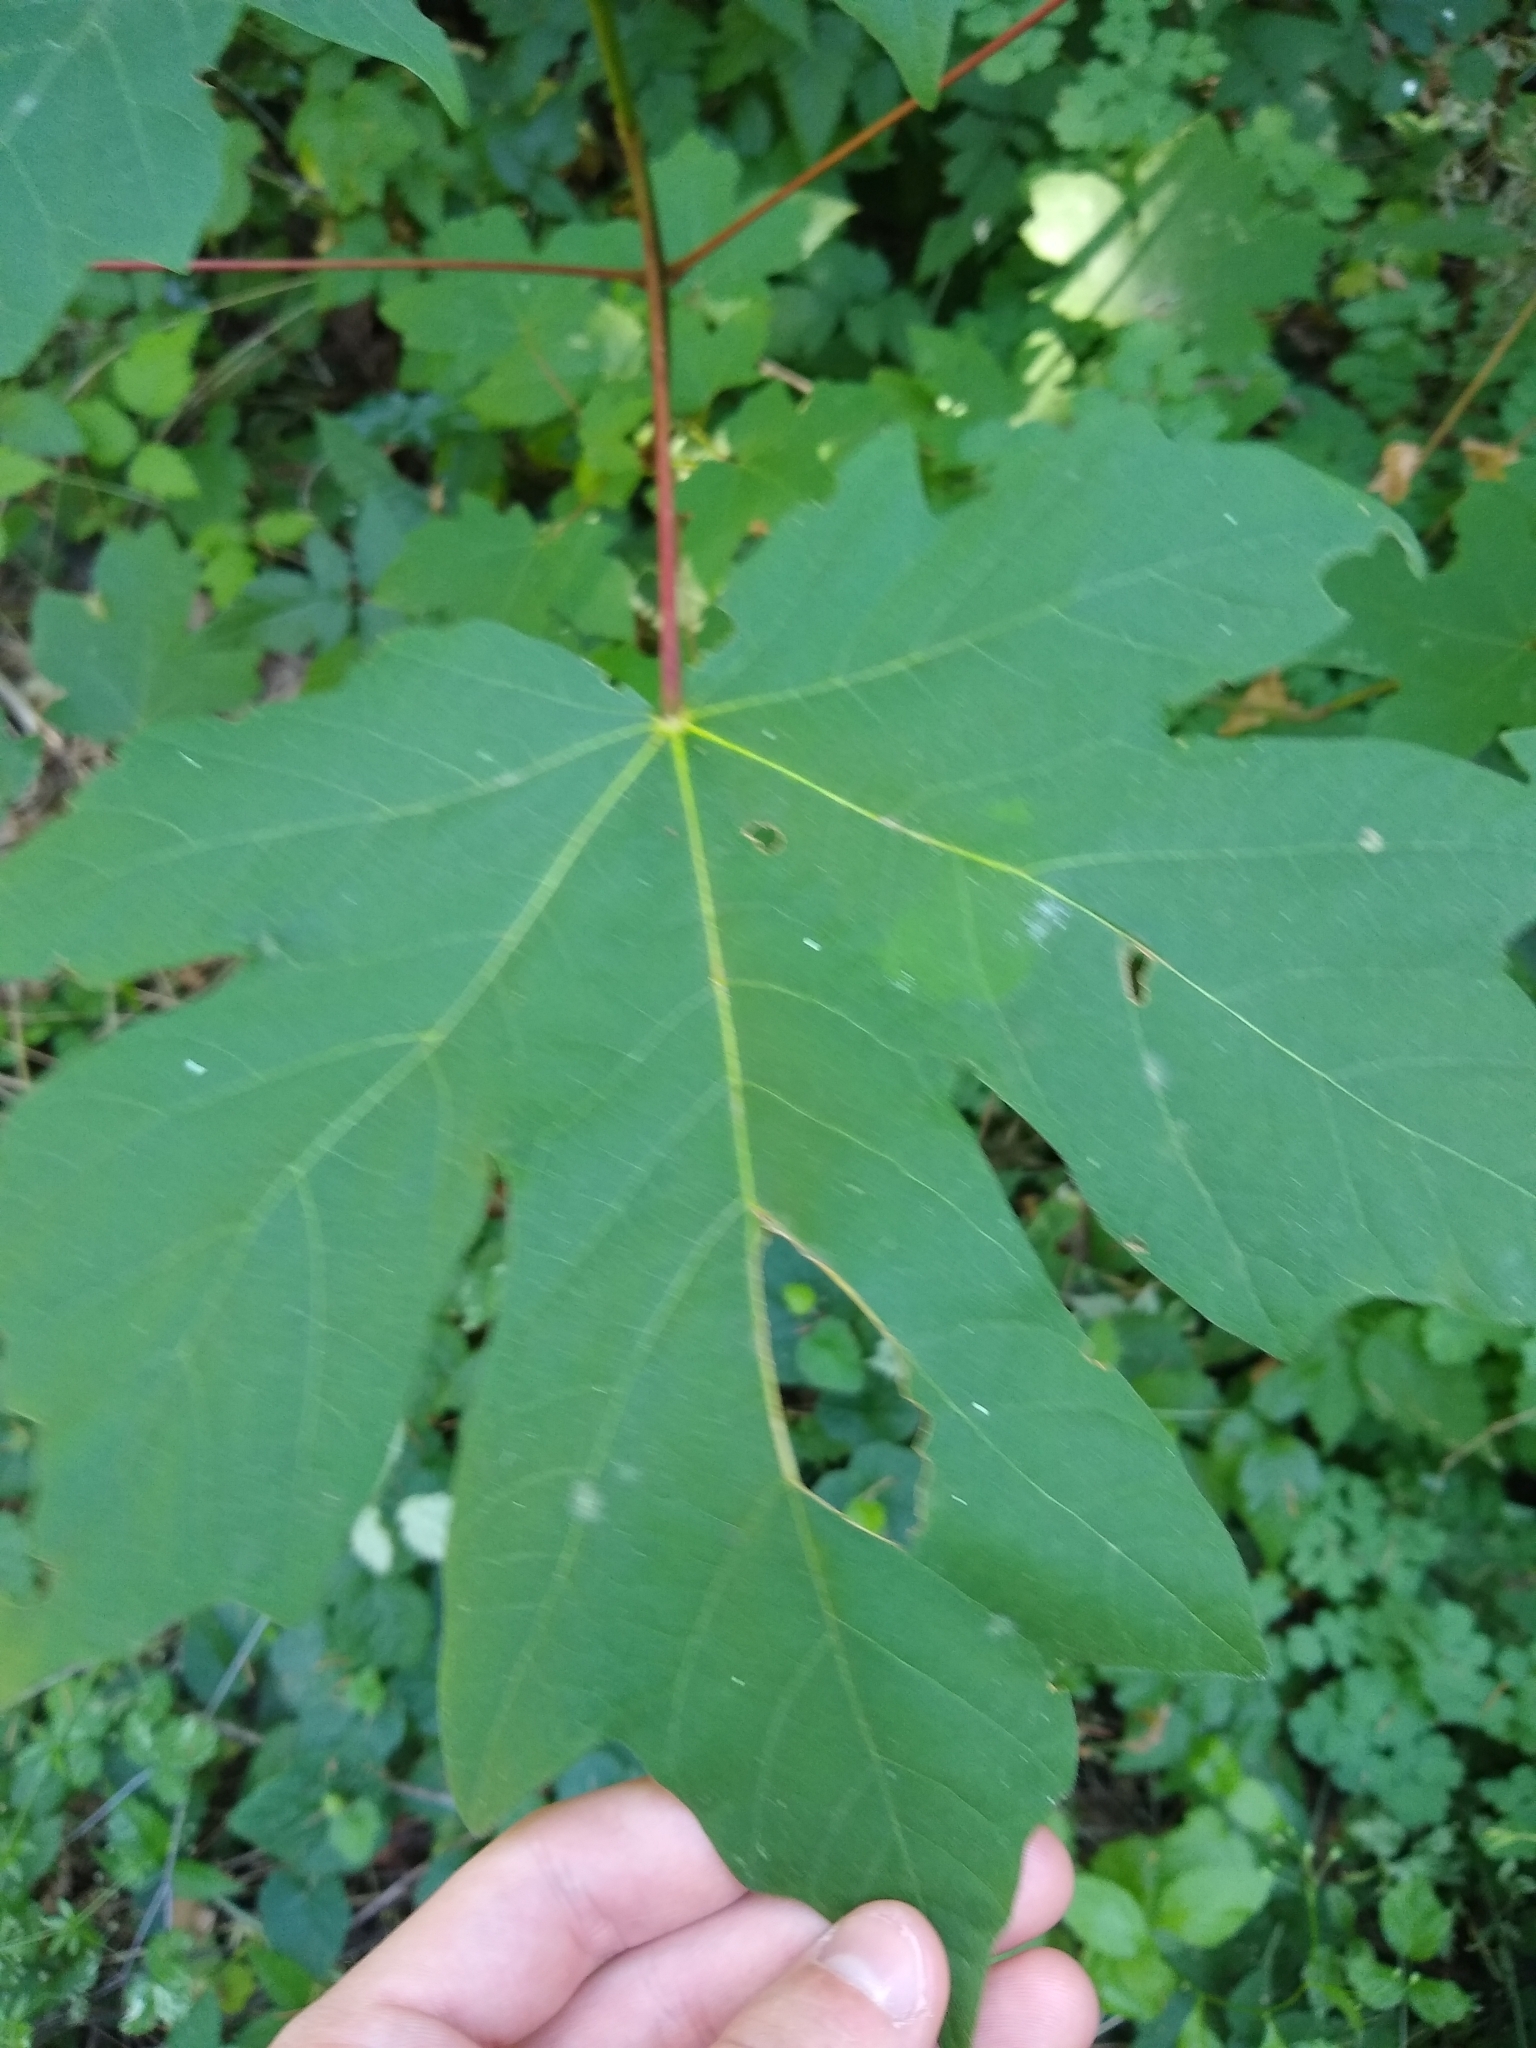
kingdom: Plantae
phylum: Tracheophyta
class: Magnoliopsida
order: Sapindales
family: Sapindaceae
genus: Acer
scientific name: Acer macrophyllum
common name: Oregon maple
